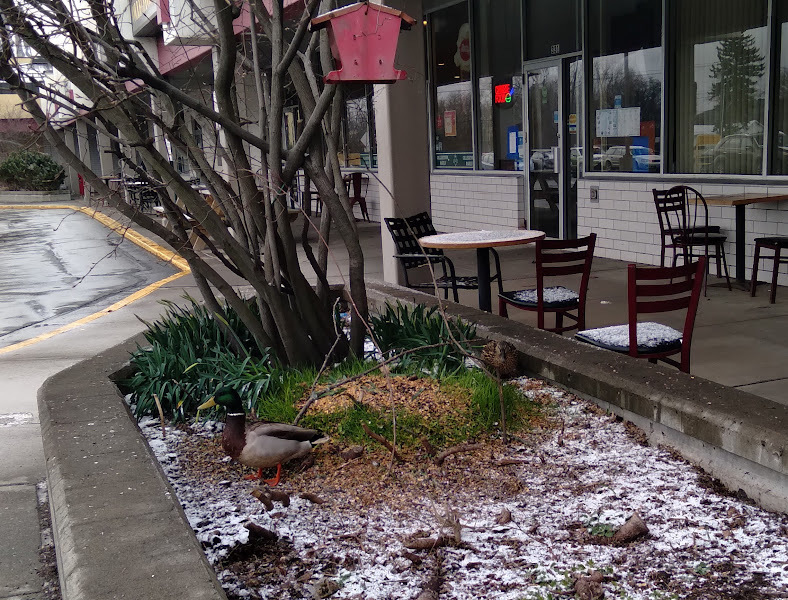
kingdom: Animalia
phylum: Chordata
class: Aves
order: Anseriformes
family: Anatidae
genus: Anas
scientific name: Anas platyrhynchos
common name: Mallard
